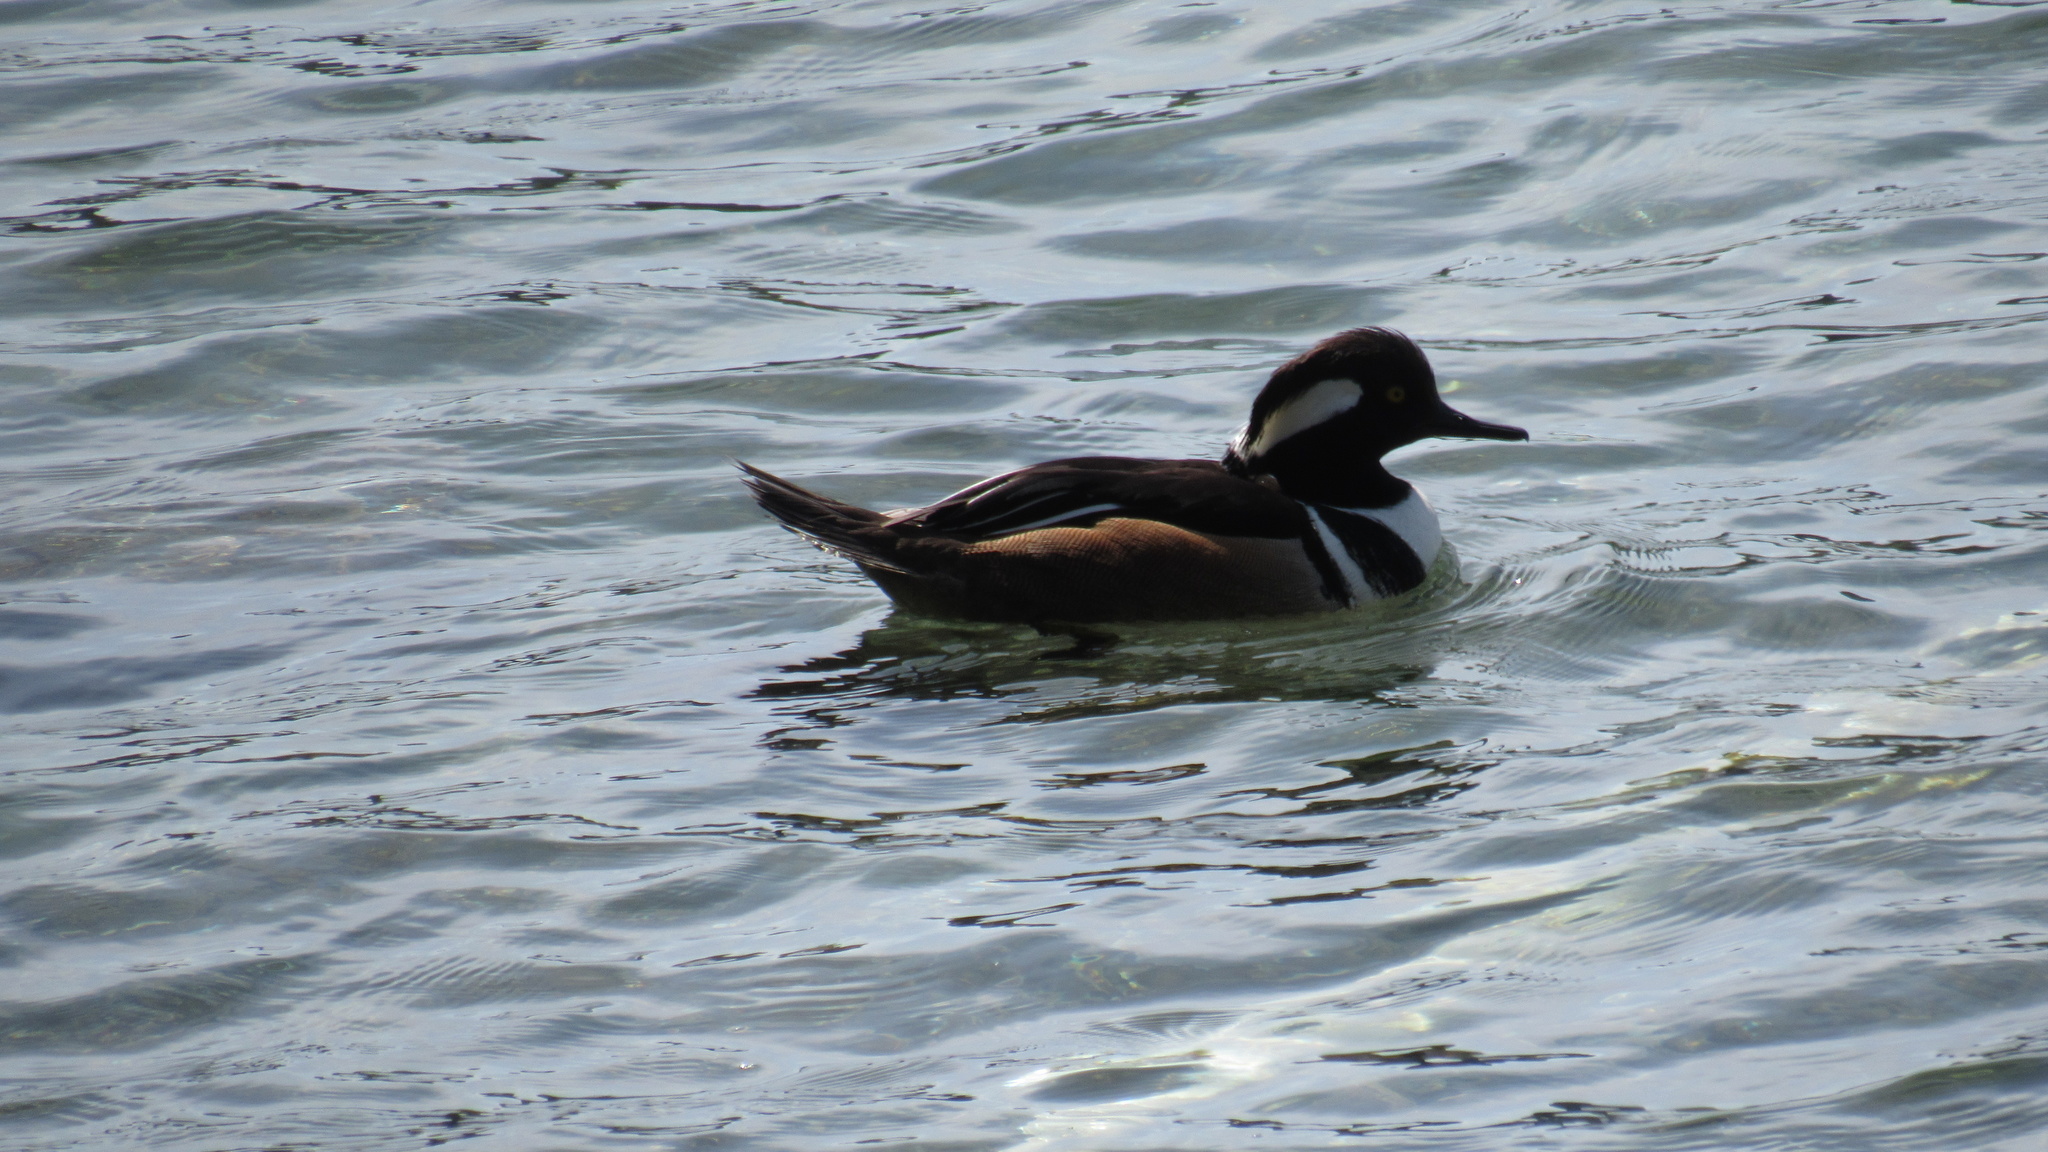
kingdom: Animalia
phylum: Chordata
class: Aves
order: Anseriformes
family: Anatidae
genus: Lophodytes
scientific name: Lophodytes cucullatus
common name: Hooded merganser
